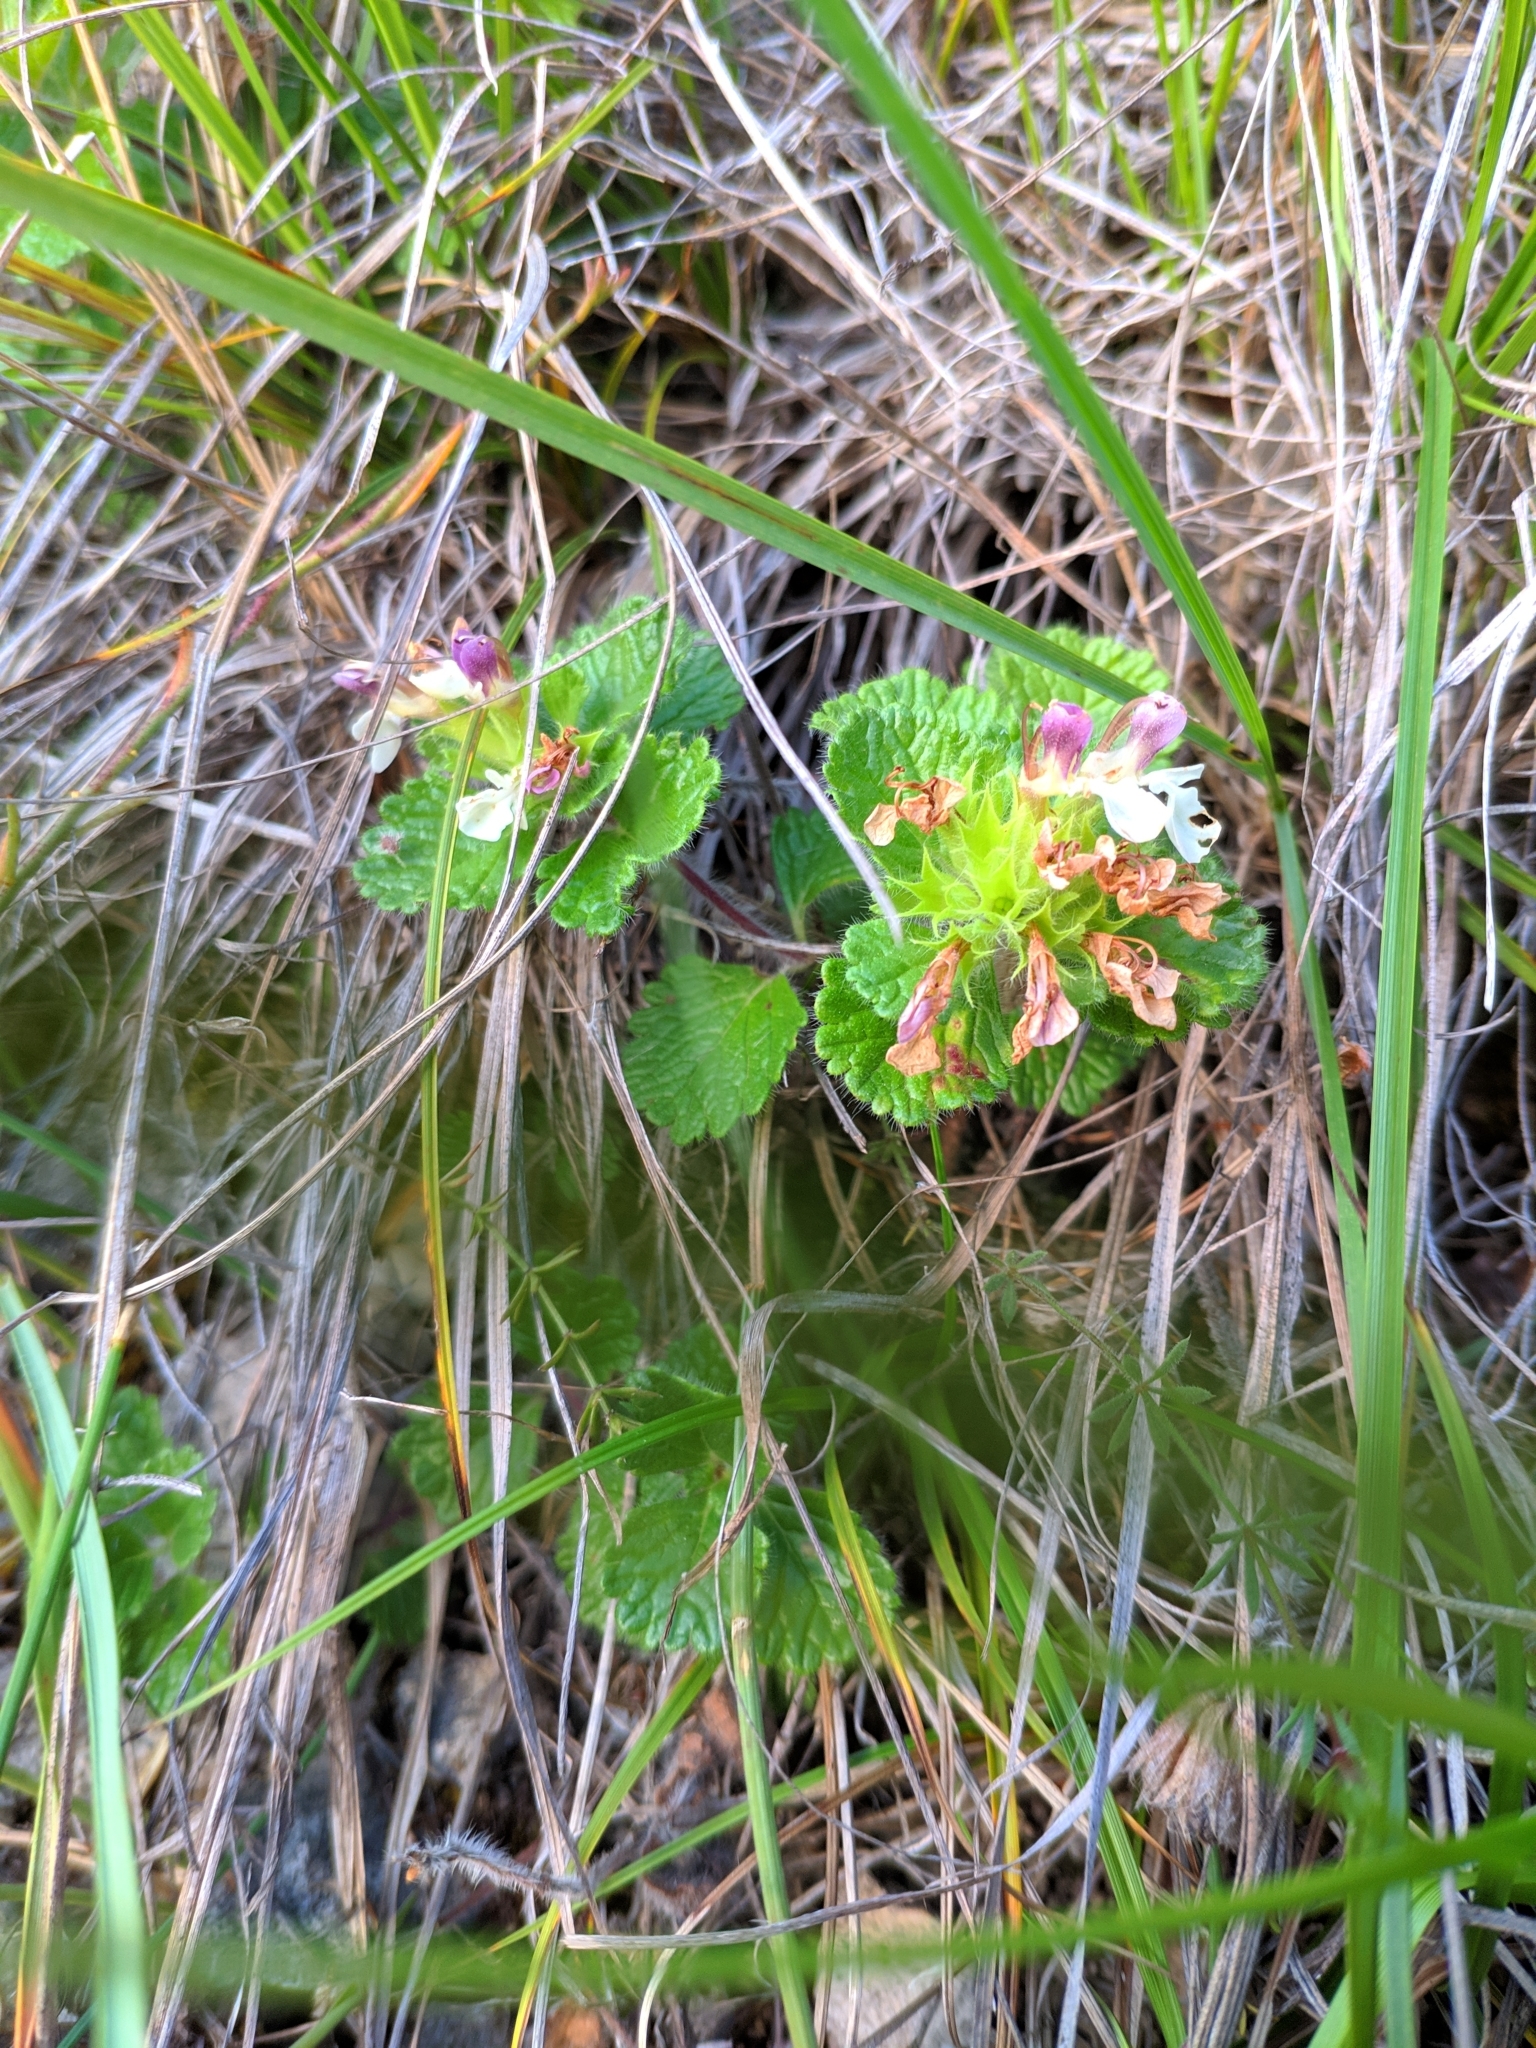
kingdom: Plantae
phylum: Tracheophyta
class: Magnoliopsida
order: Lamiales
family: Lamiaceae
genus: Teucrium
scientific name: Teucrium pyrenaicum
